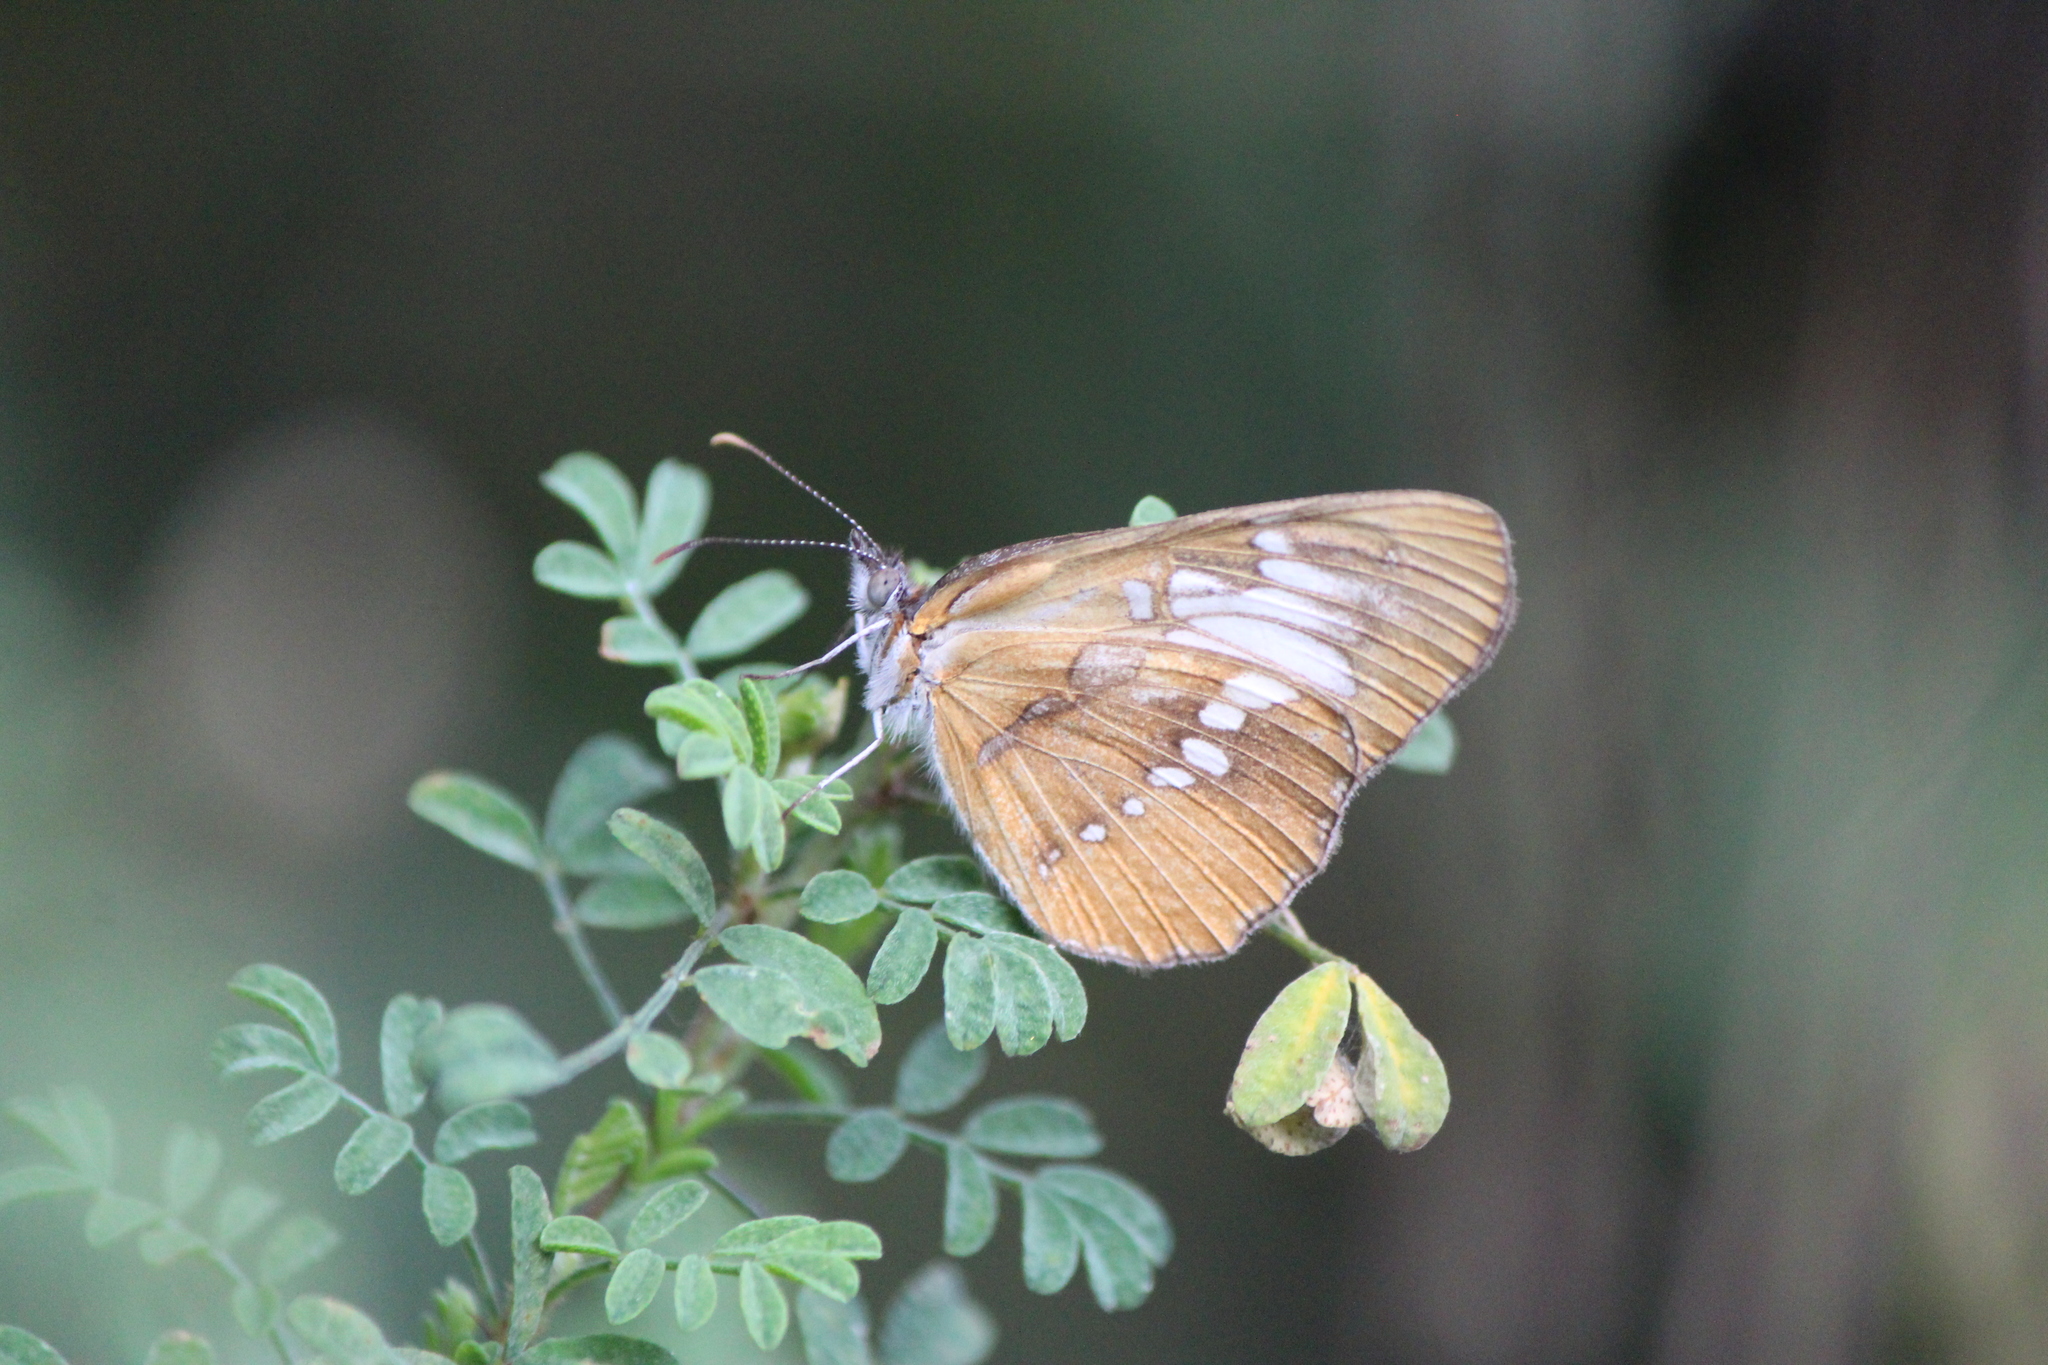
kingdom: Animalia
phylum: Arthropoda
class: Insecta
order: Lepidoptera
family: Nymphalidae
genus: Mestra
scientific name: Mestra amymone
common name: Common mestra
